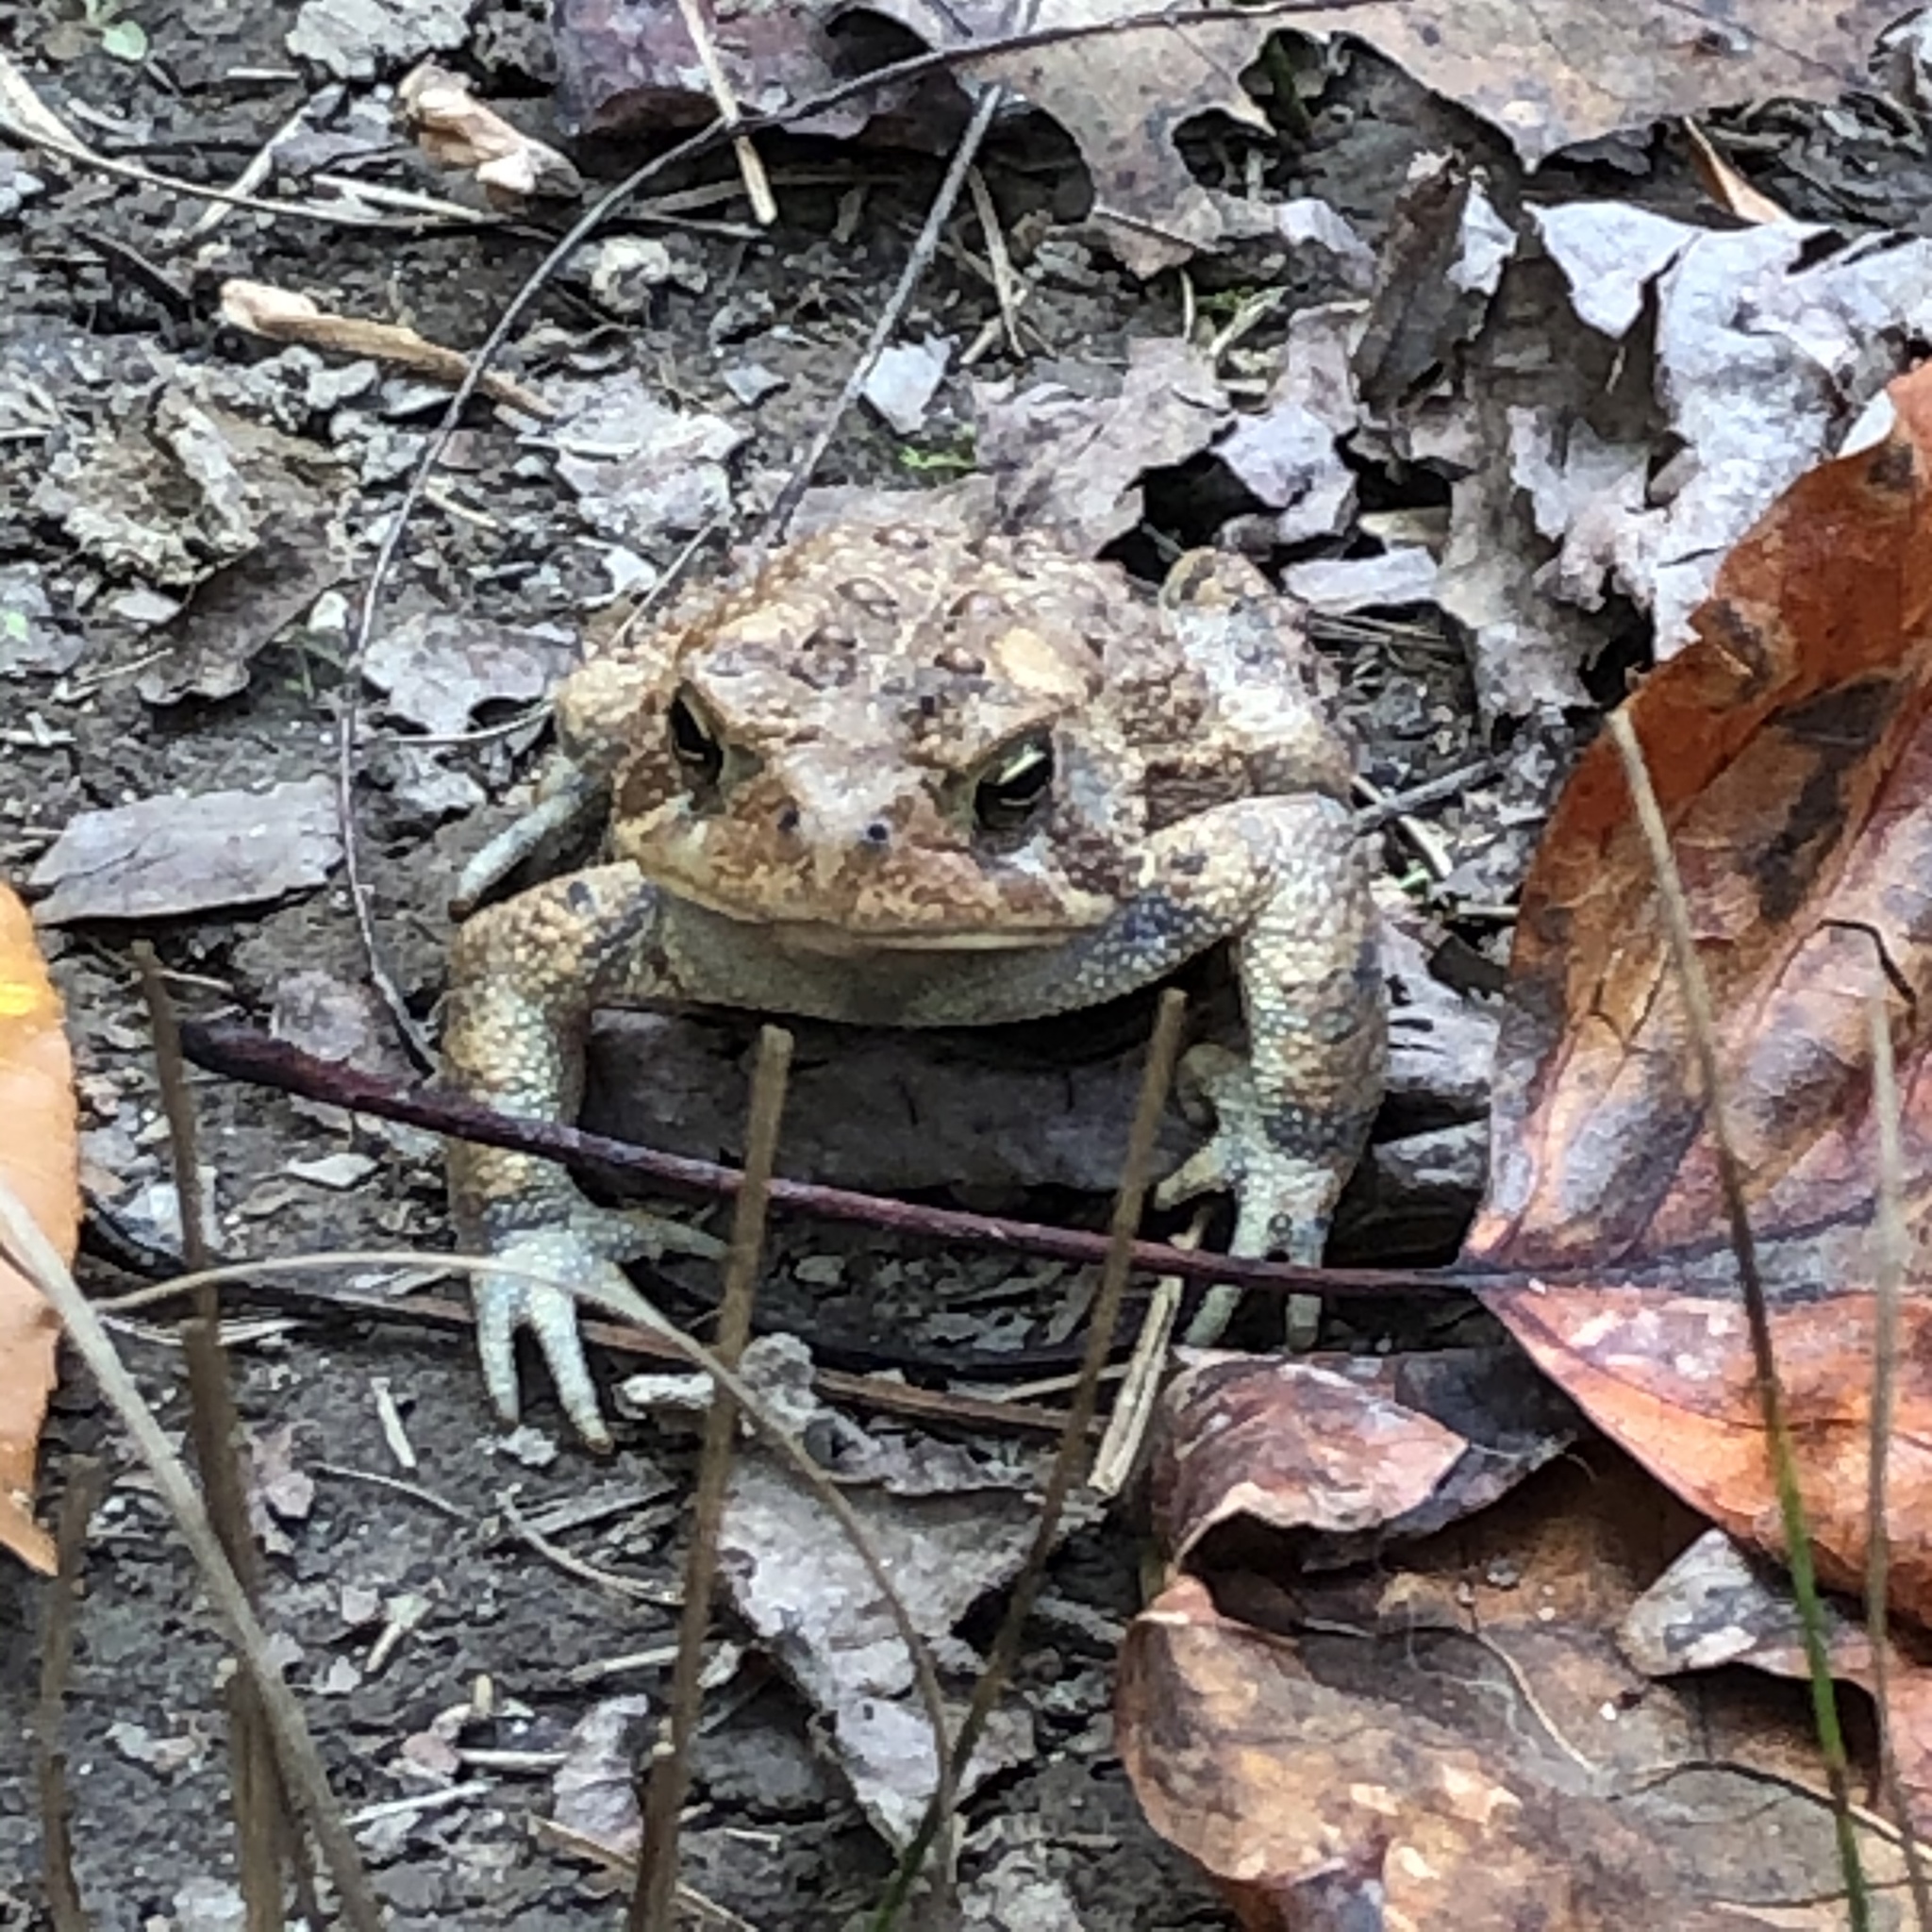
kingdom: Animalia
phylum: Chordata
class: Amphibia
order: Anura
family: Bufonidae
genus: Anaxyrus
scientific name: Anaxyrus americanus
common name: American toad
